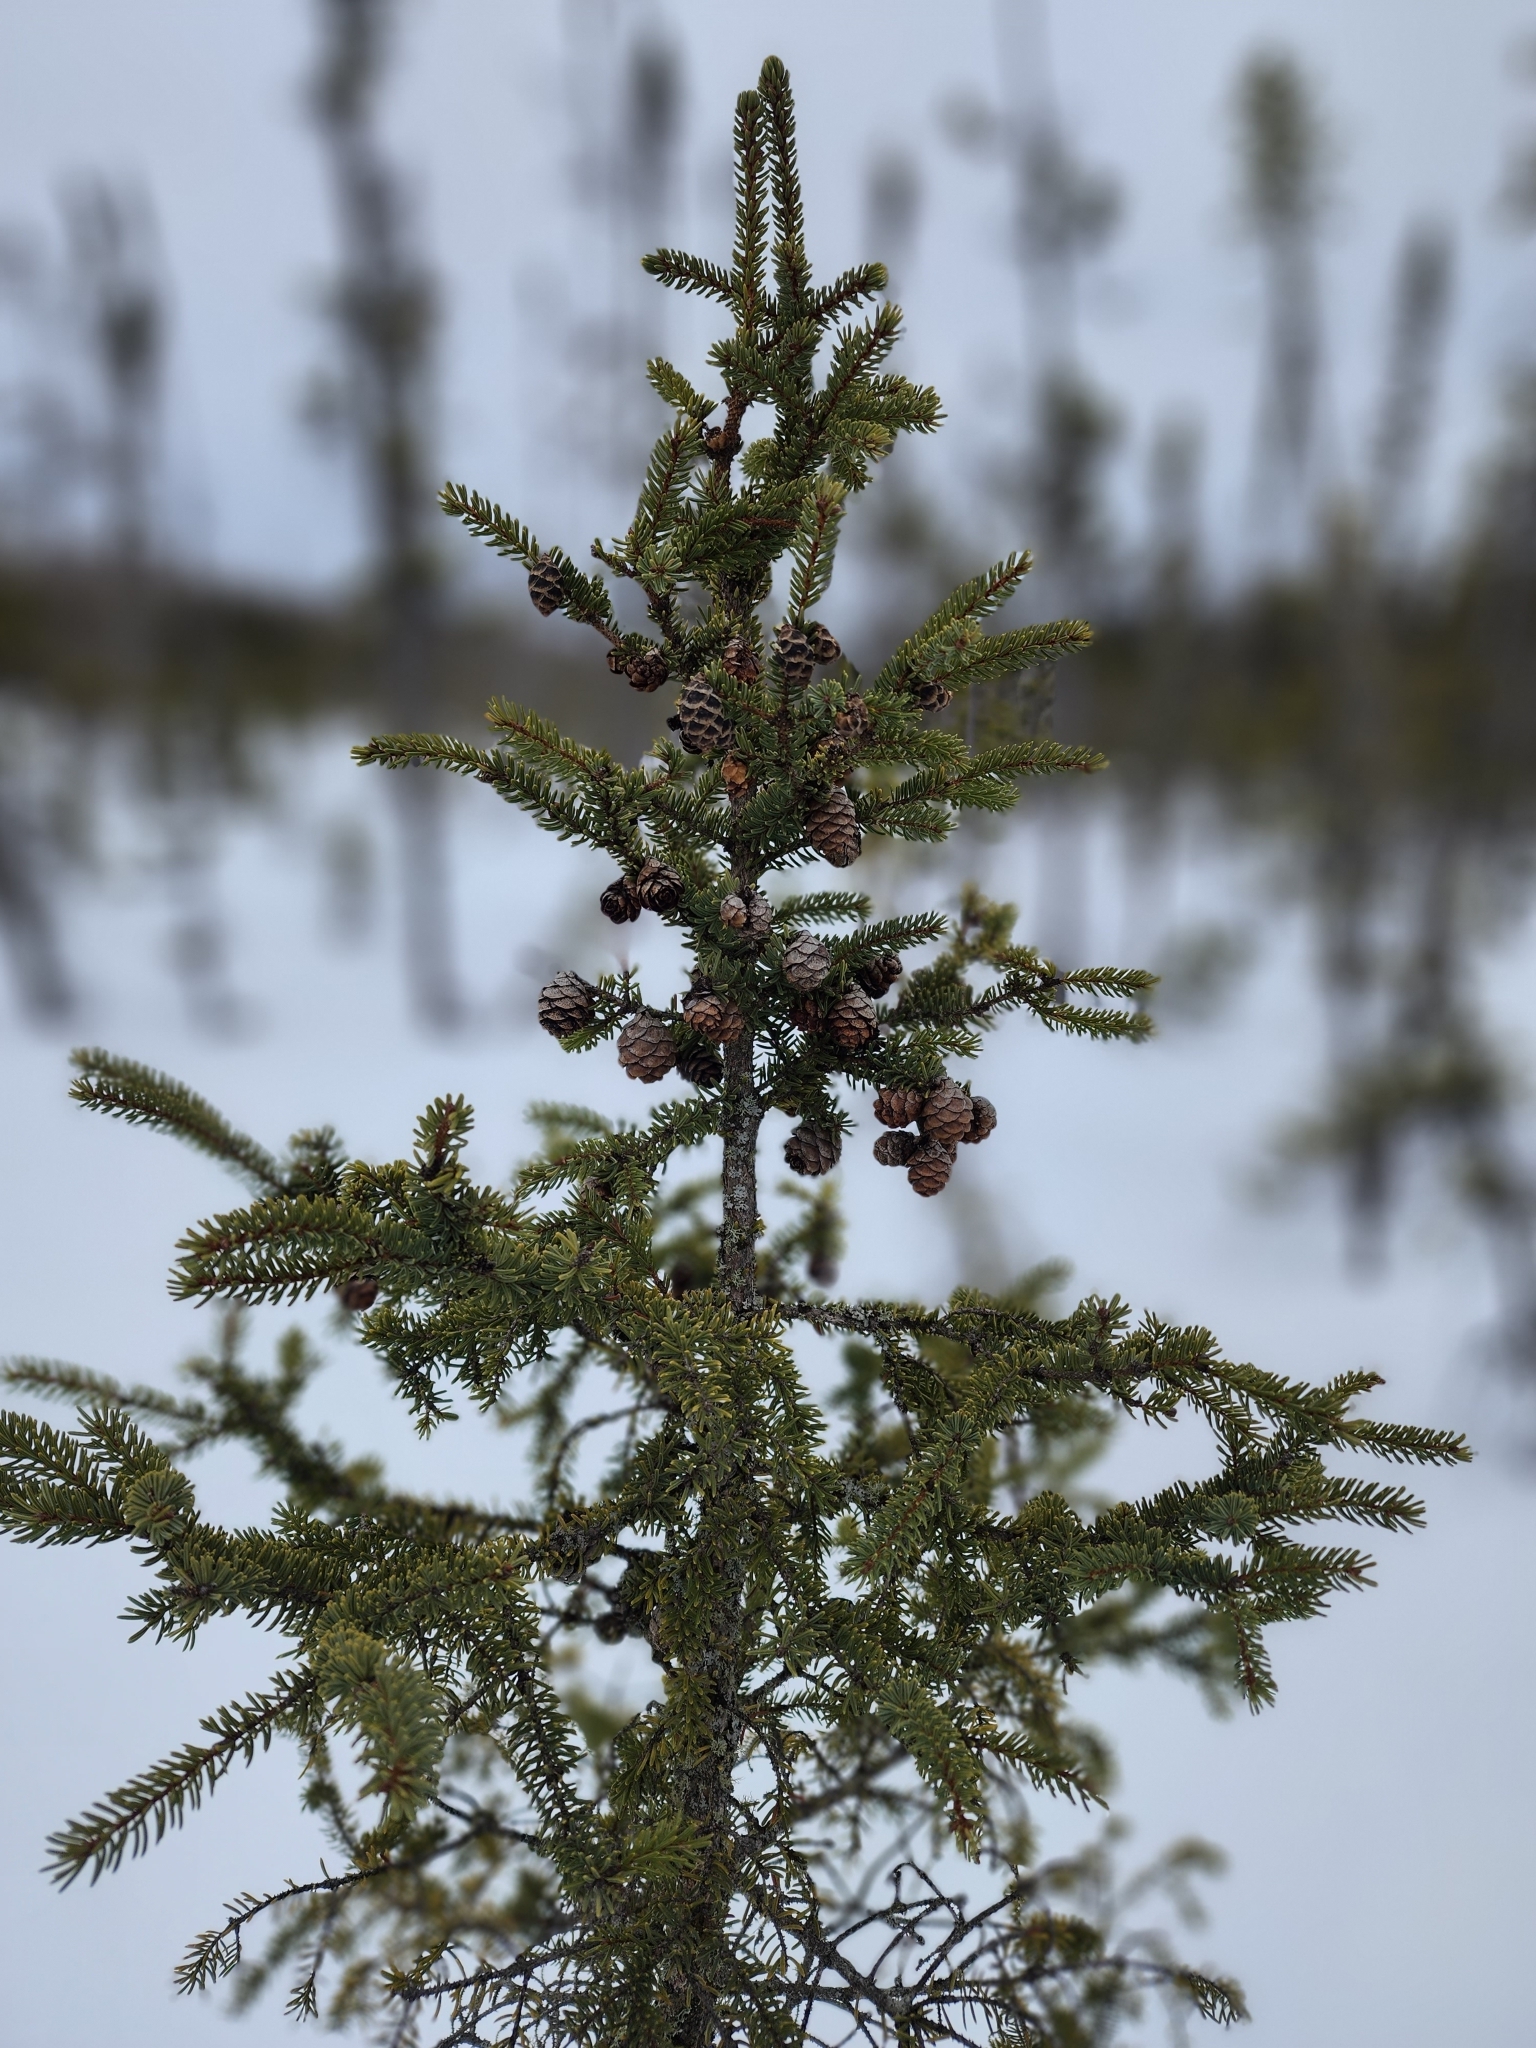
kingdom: Plantae
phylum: Tracheophyta
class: Pinopsida
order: Pinales
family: Pinaceae
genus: Picea
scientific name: Picea mariana
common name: Black spruce
